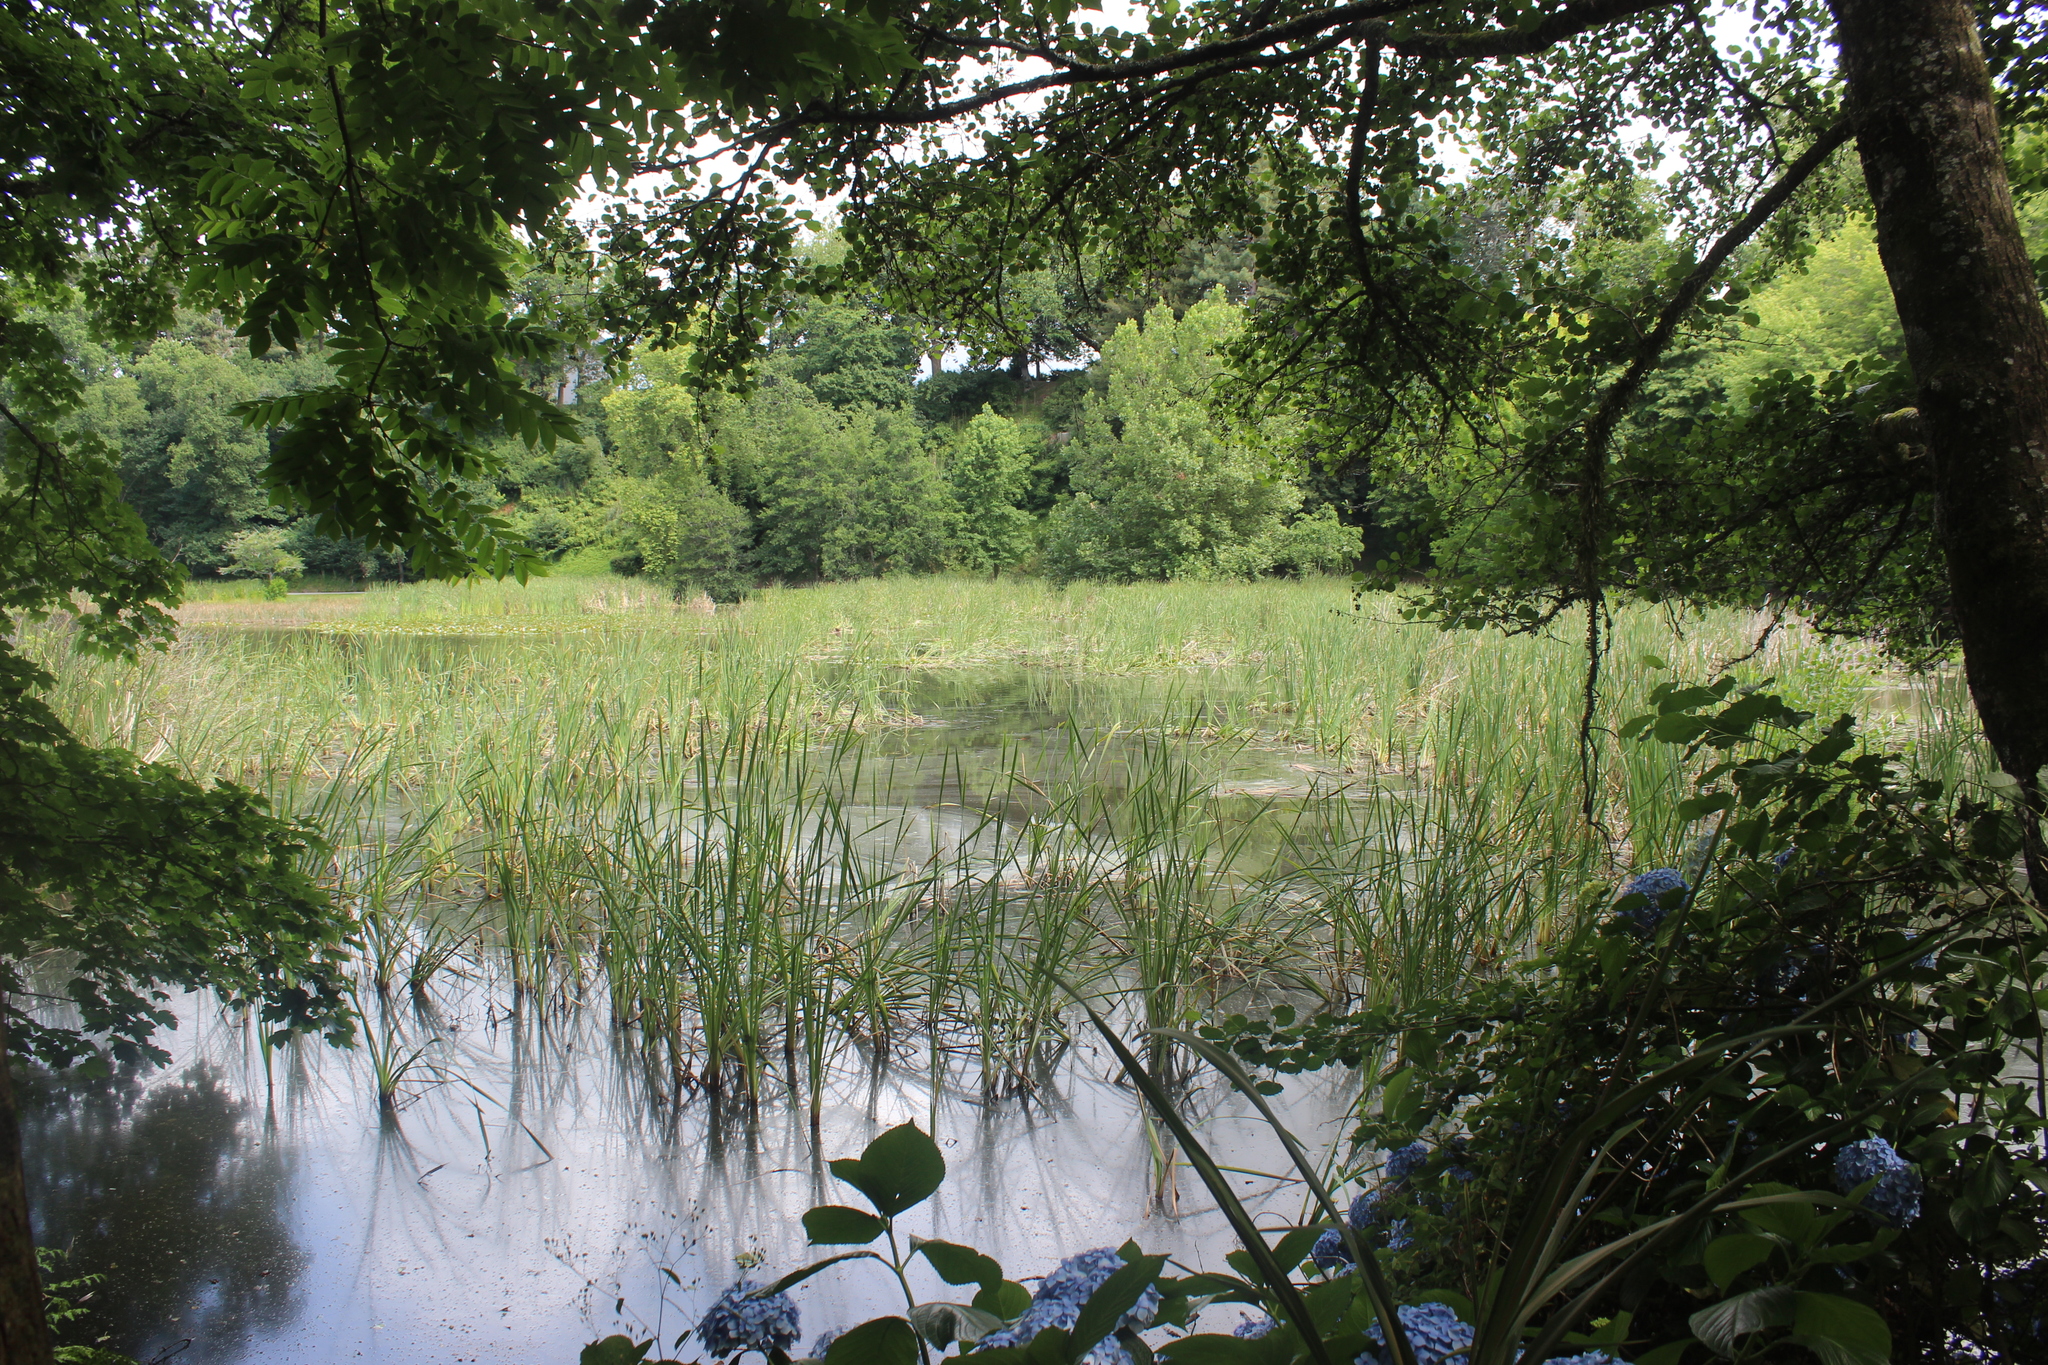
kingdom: Plantae
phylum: Tracheophyta
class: Liliopsida
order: Poales
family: Typhaceae
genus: Typha
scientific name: Typha orientalis
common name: Bullrush
